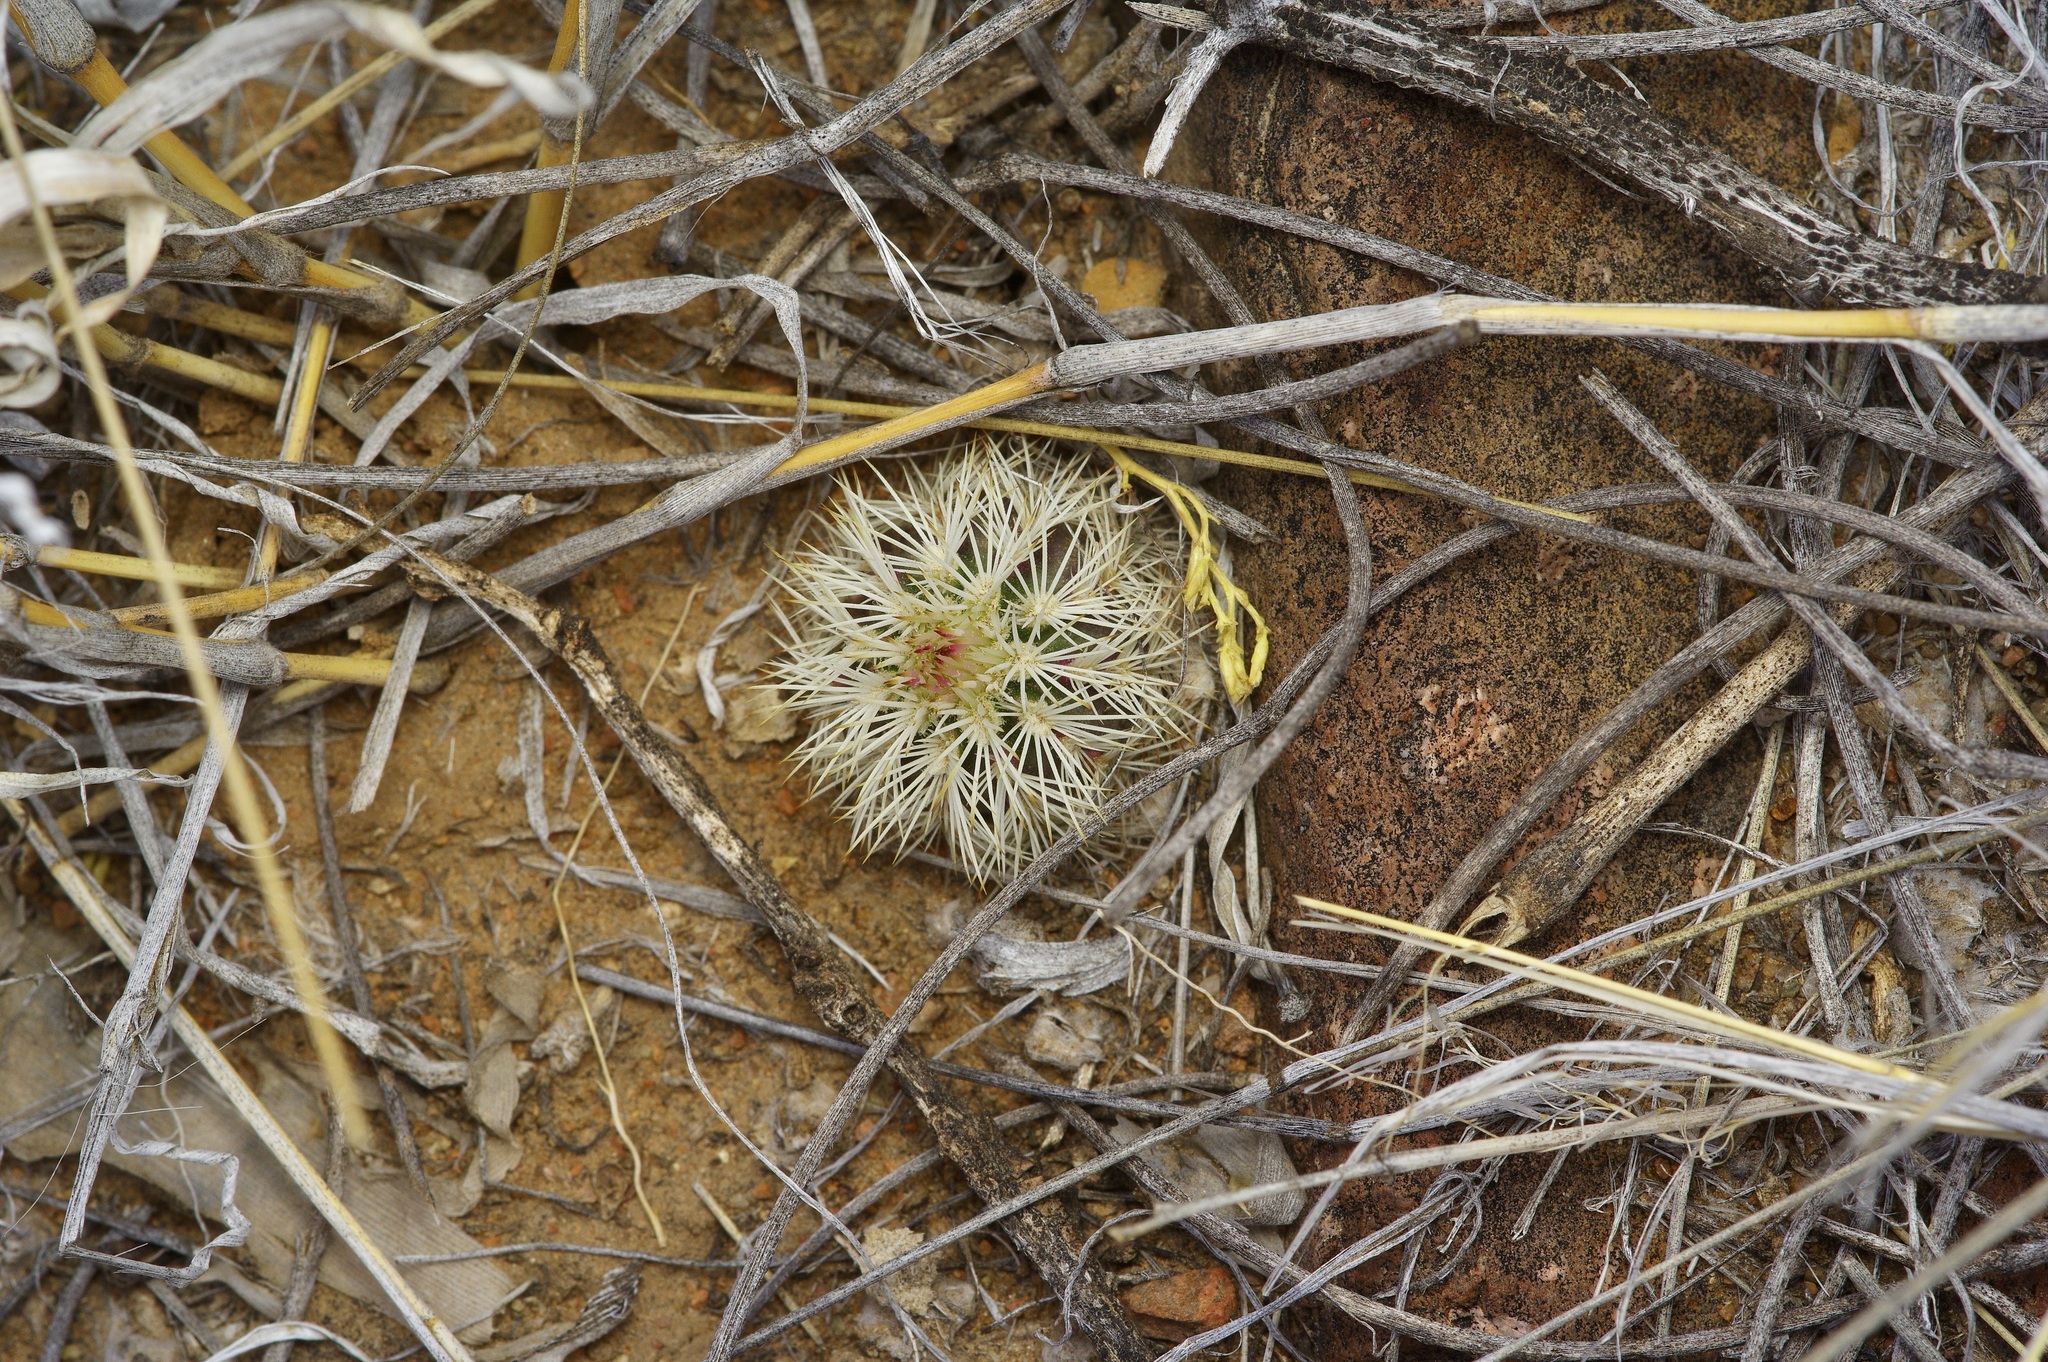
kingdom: Plantae
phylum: Tracheophyta
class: Magnoliopsida
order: Caryophyllales
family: Cactaceae
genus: Echinocereus
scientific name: Echinocereus viridiflorus
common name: Nylon hedgehog cactus
